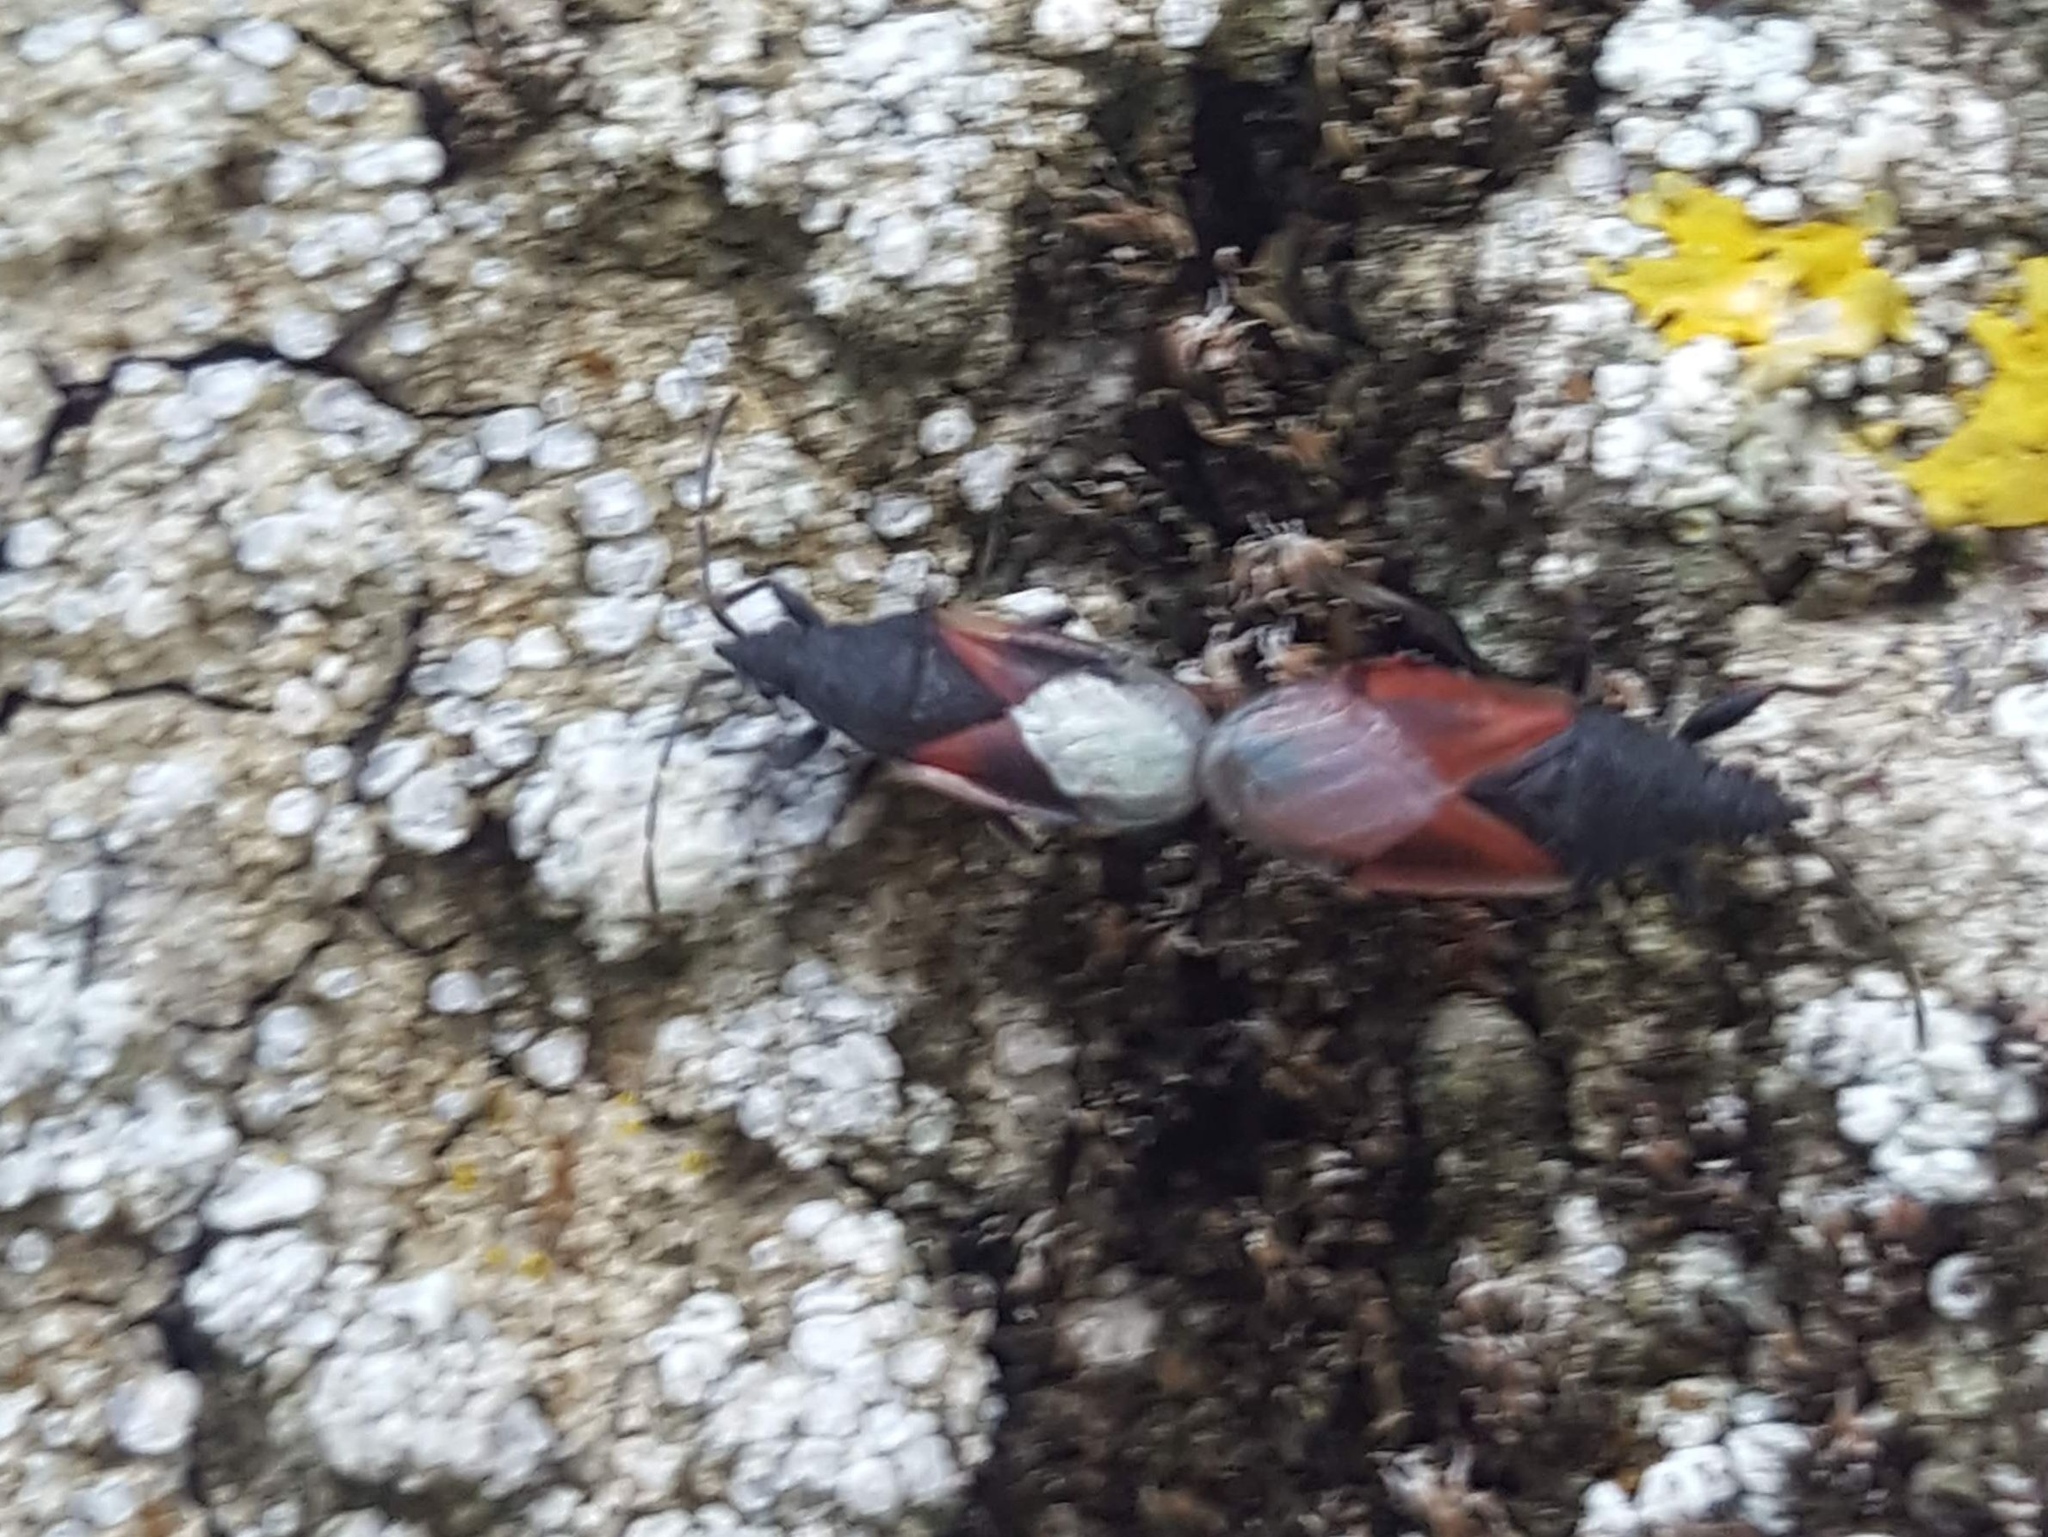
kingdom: Animalia
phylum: Arthropoda
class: Insecta
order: Hemiptera
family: Oxycarenidae
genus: Oxycarenus
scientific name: Oxycarenus lavaterae
